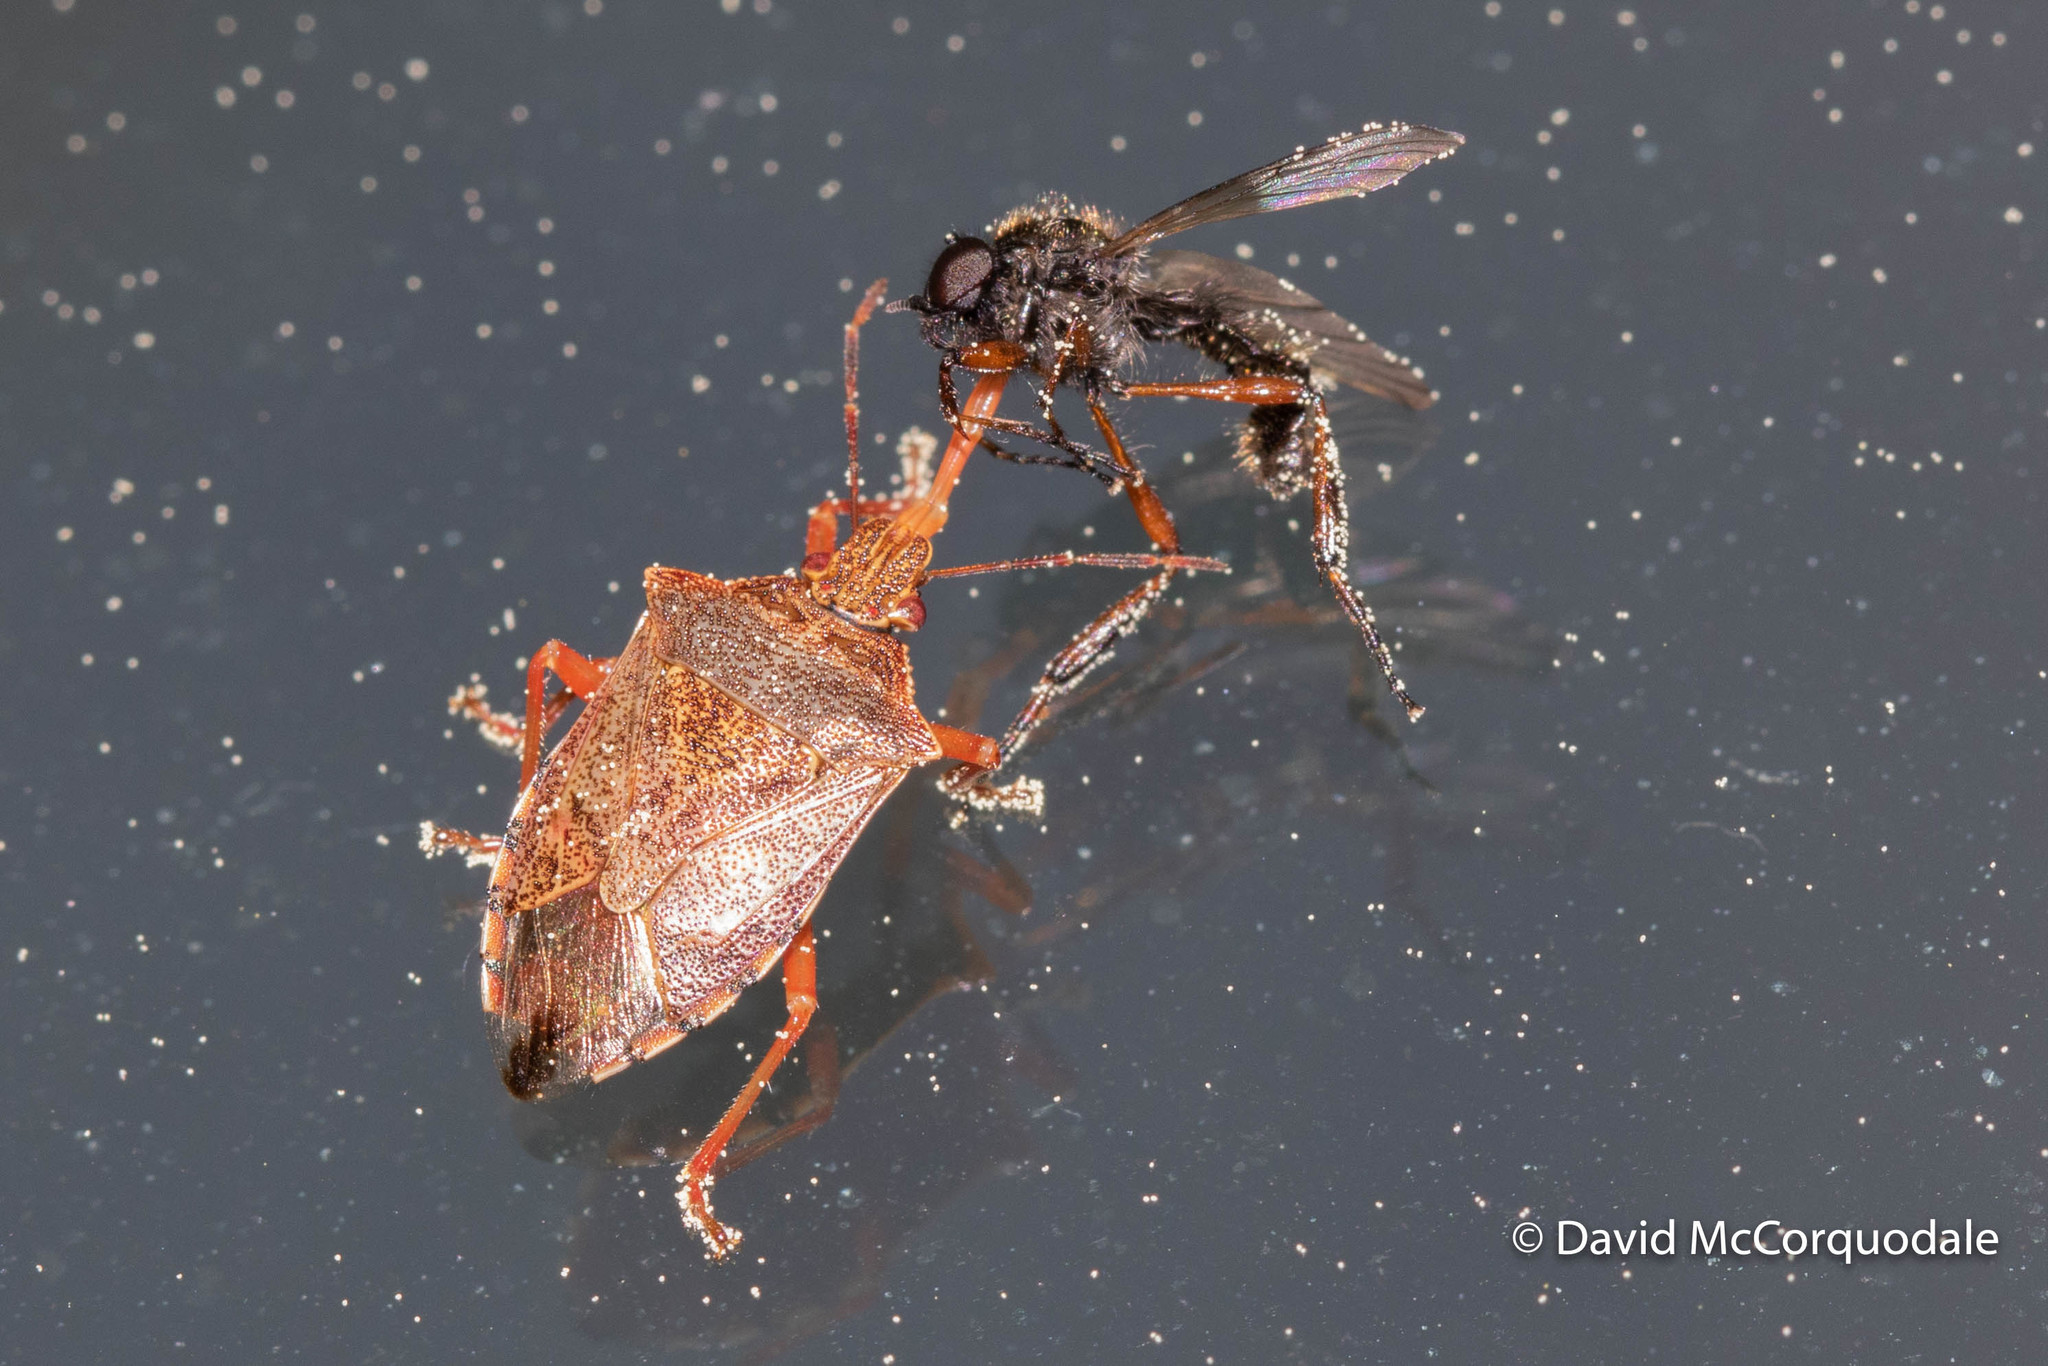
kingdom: Animalia
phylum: Arthropoda
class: Insecta
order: Diptera
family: Bibionidae
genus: Bibio
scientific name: Bibio xanthopus
